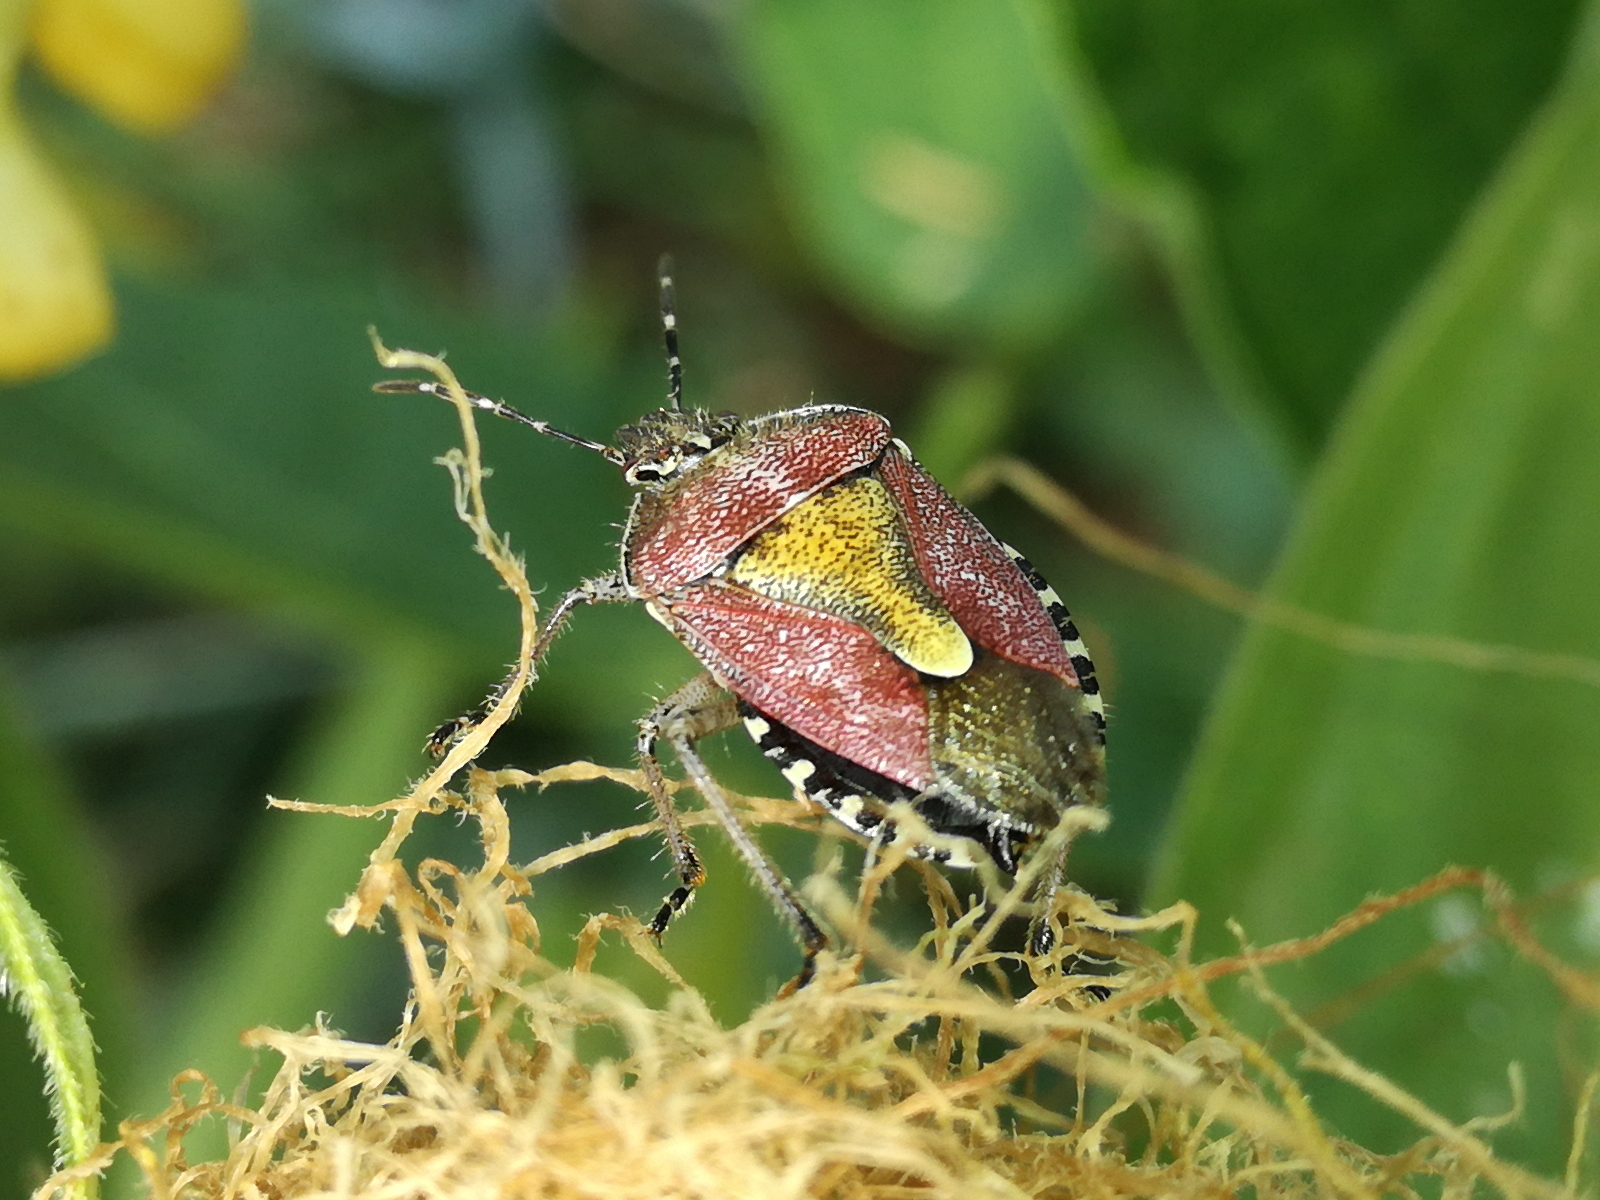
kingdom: Animalia
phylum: Arthropoda
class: Insecta
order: Hemiptera
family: Pentatomidae
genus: Dolycoris
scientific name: Dolycoris baccarum
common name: Sloe bug
